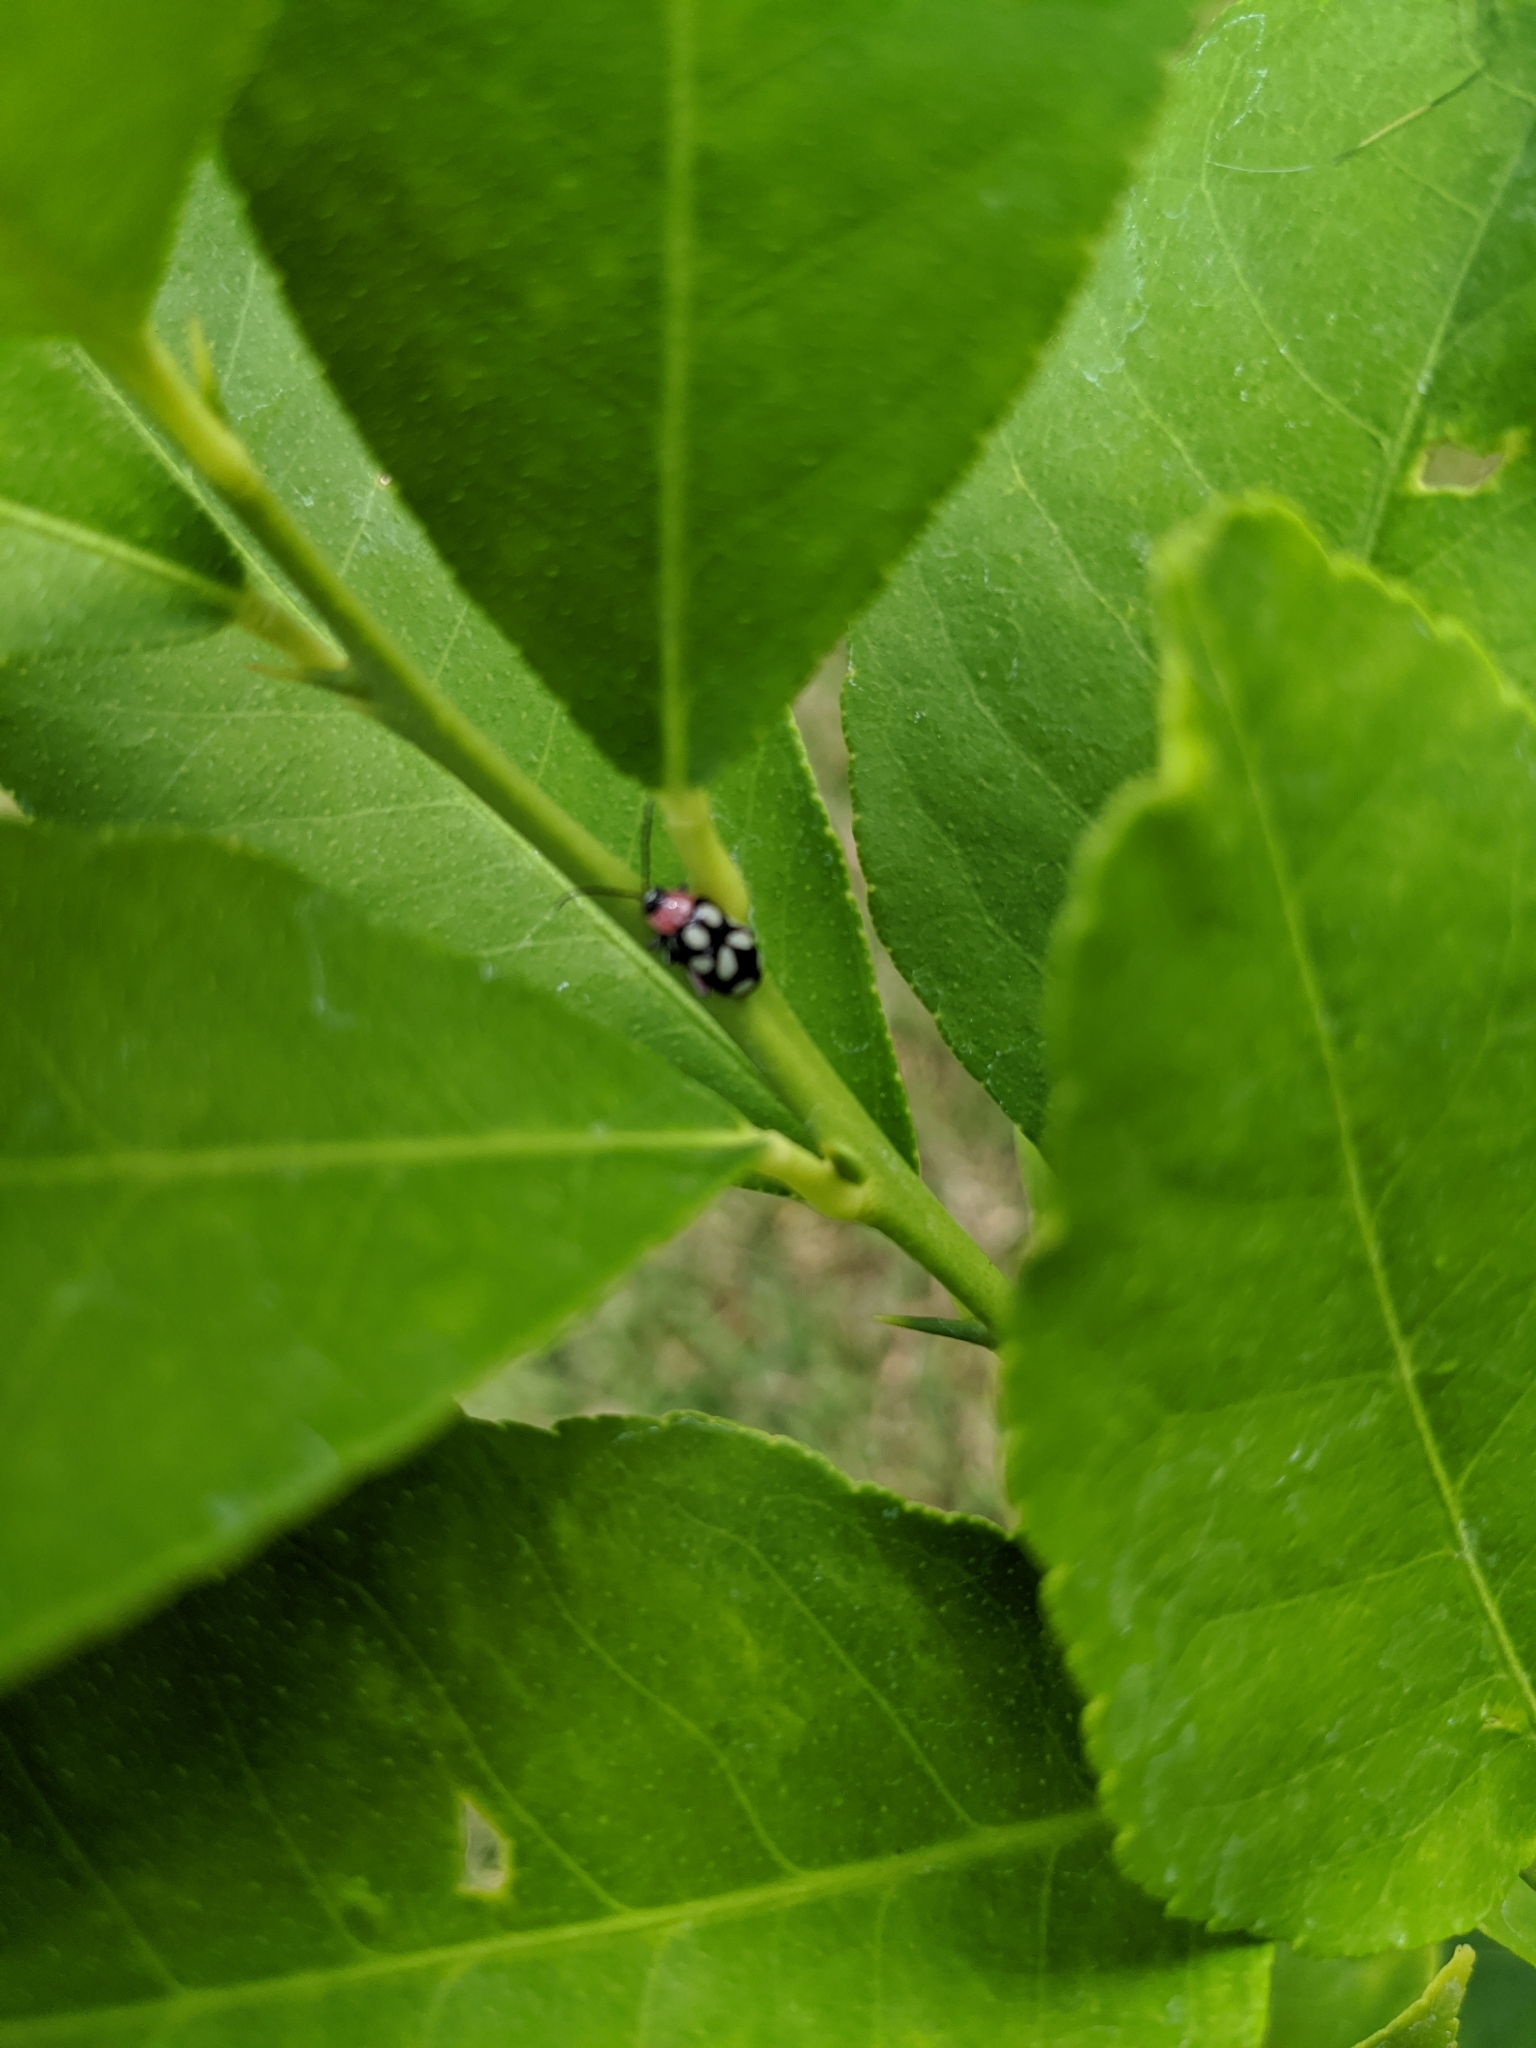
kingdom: Animalia
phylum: Arthropoda
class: Insecta
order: Coleoptera
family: Chrysomelidae
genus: Omophoita
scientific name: Omophoita cyanipennis
